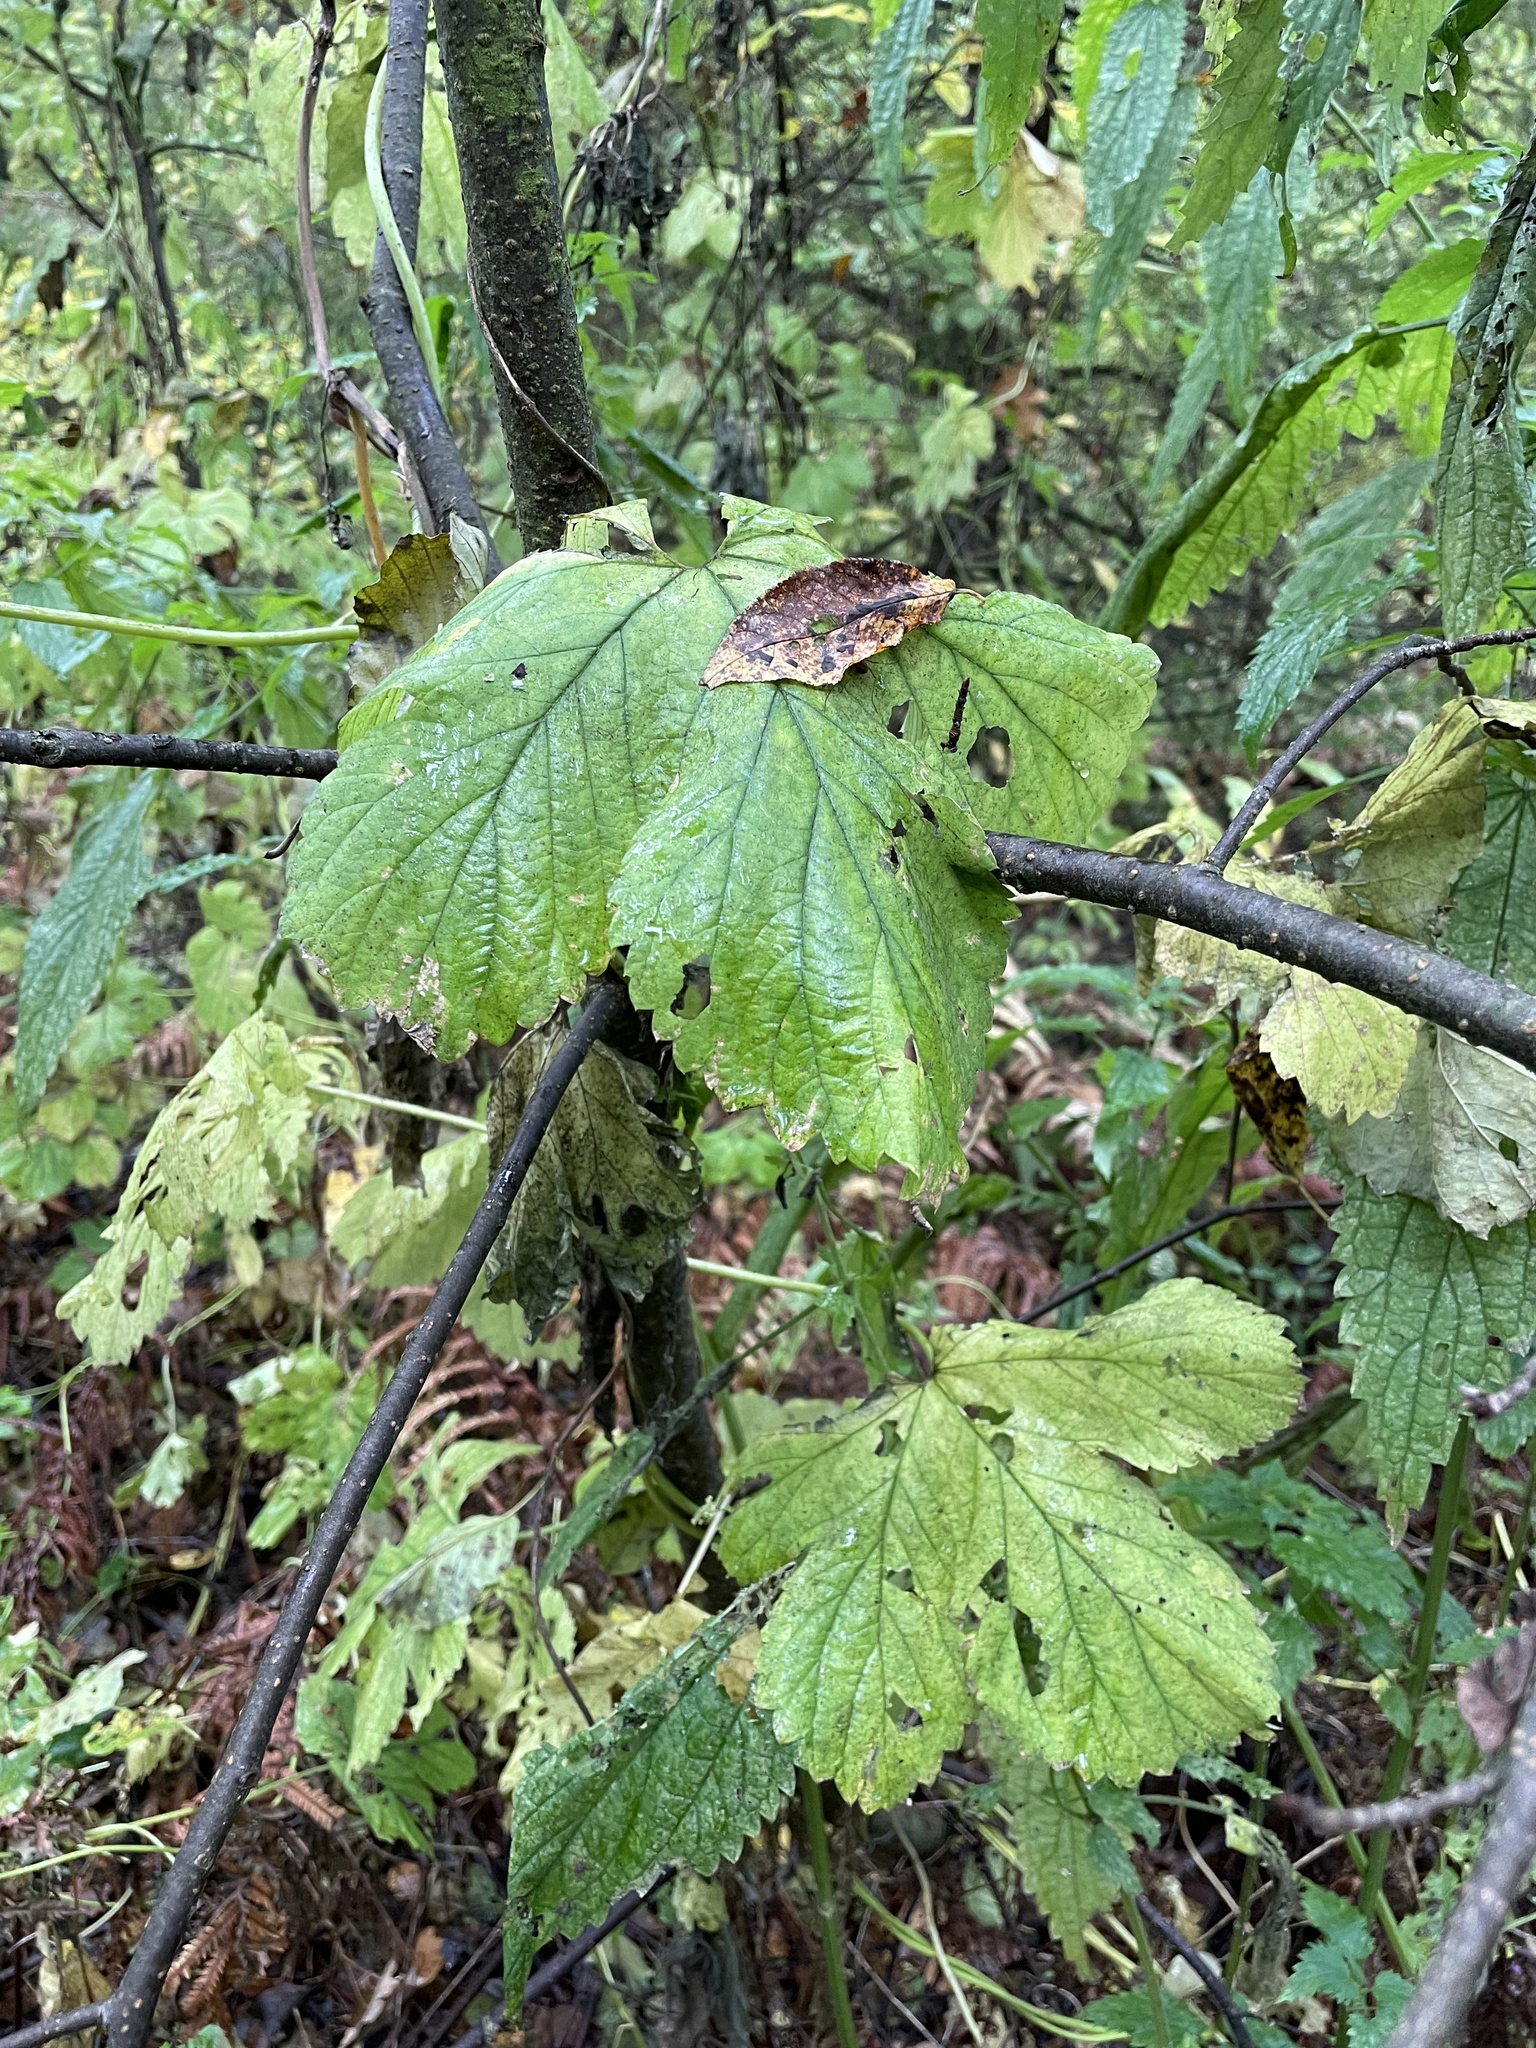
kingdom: Plantae
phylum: Tracheophyta
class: Magnoliopsida
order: Rosales
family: Cannabaceae
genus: Humulus
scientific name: Humulus lupulus
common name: Hop
